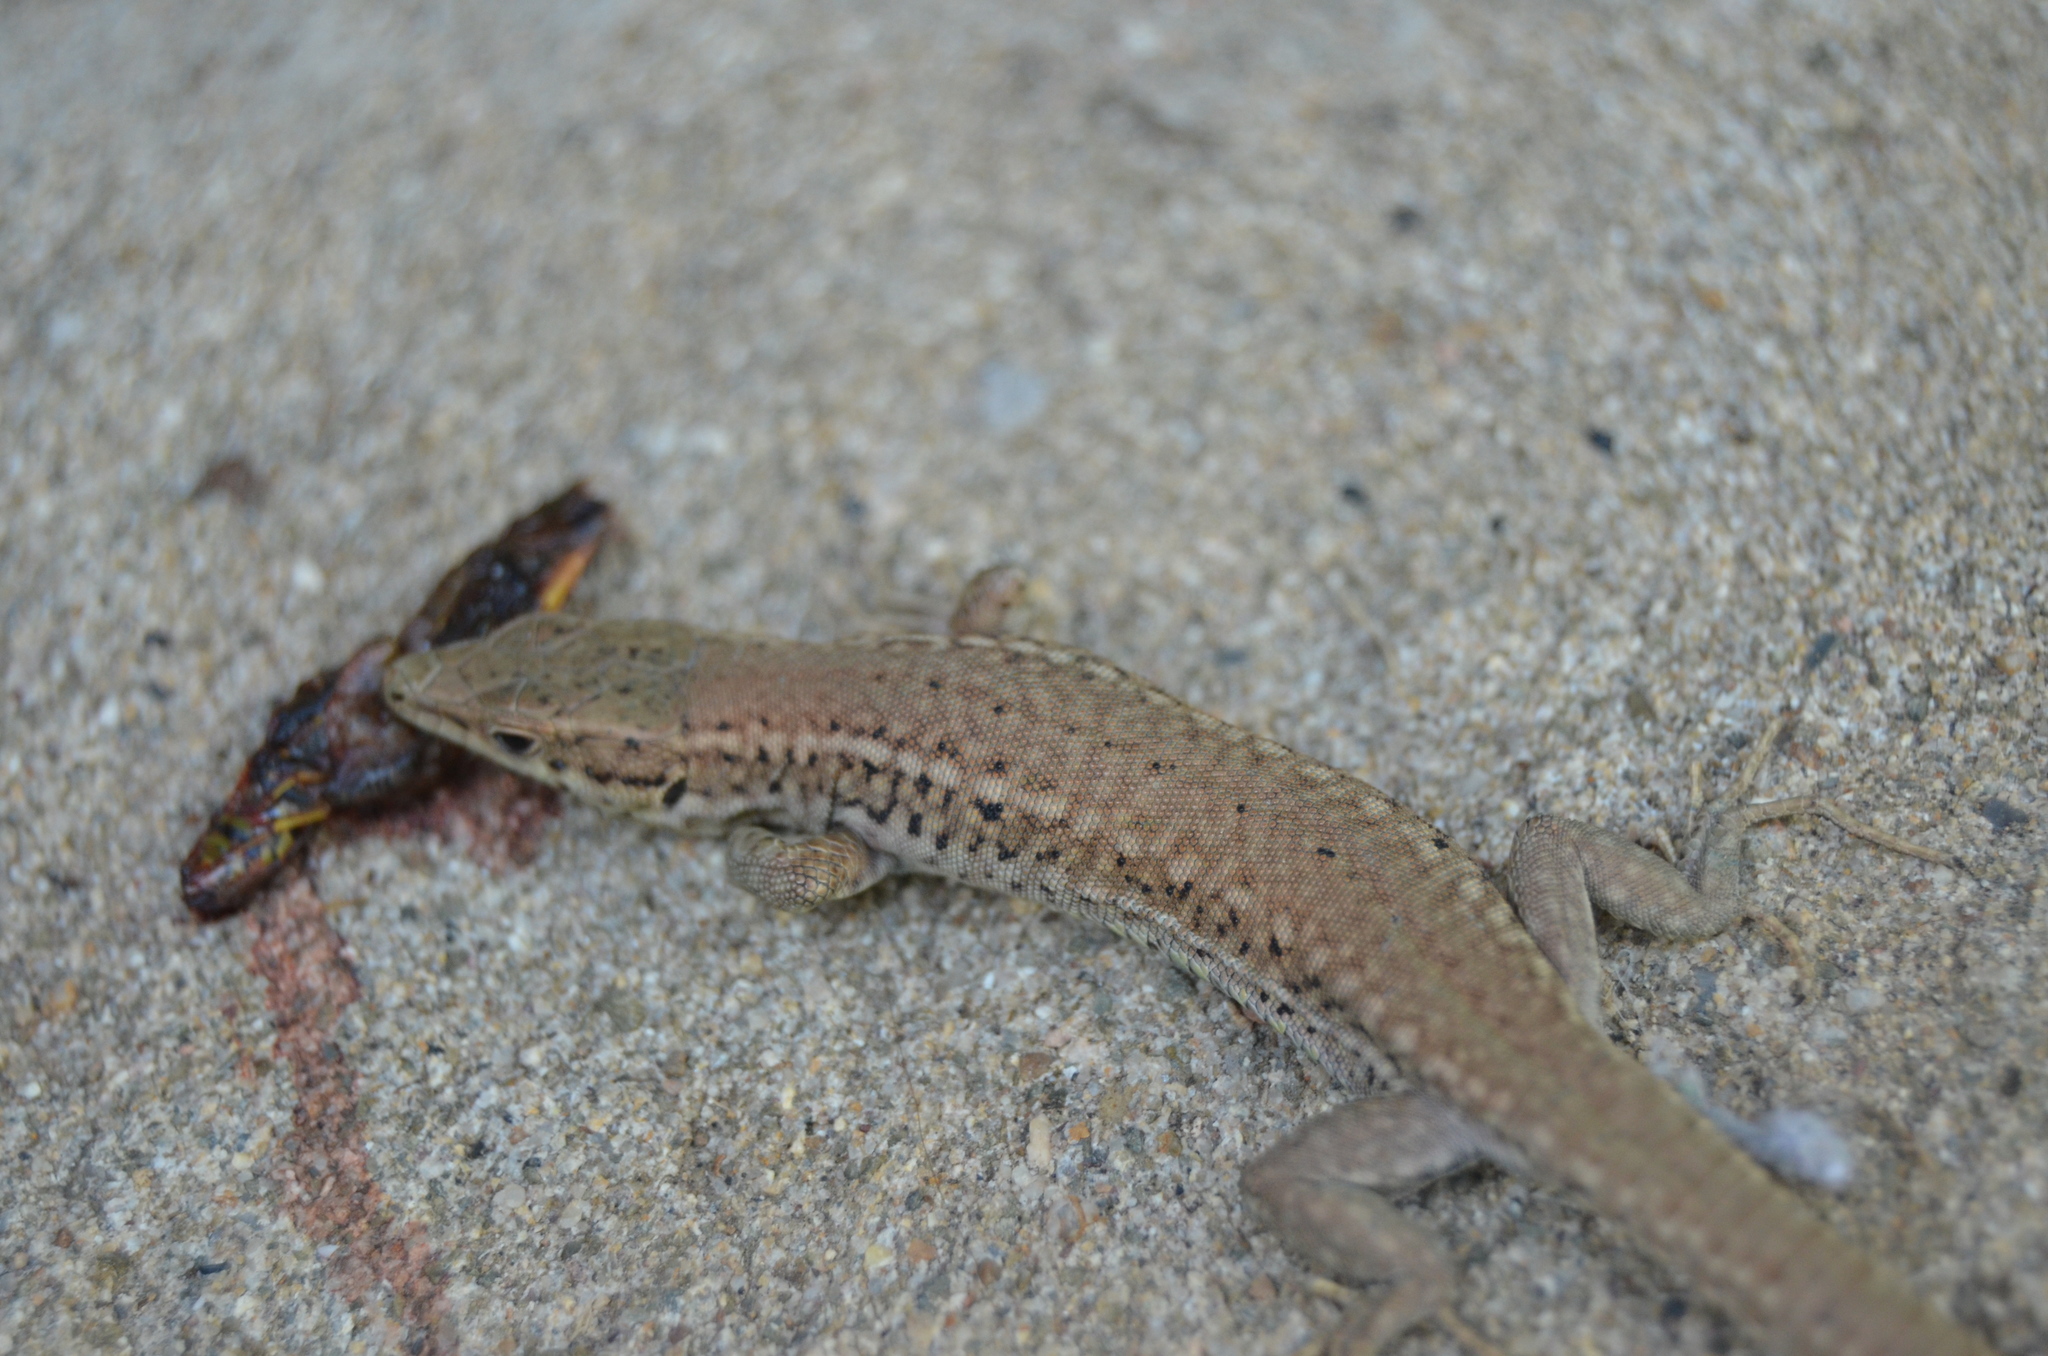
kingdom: Animalia
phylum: Chordata
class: Squamata
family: Lacertidae
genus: Podarcis
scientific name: Podarcis liolepis
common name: Catalonian wall lizard
